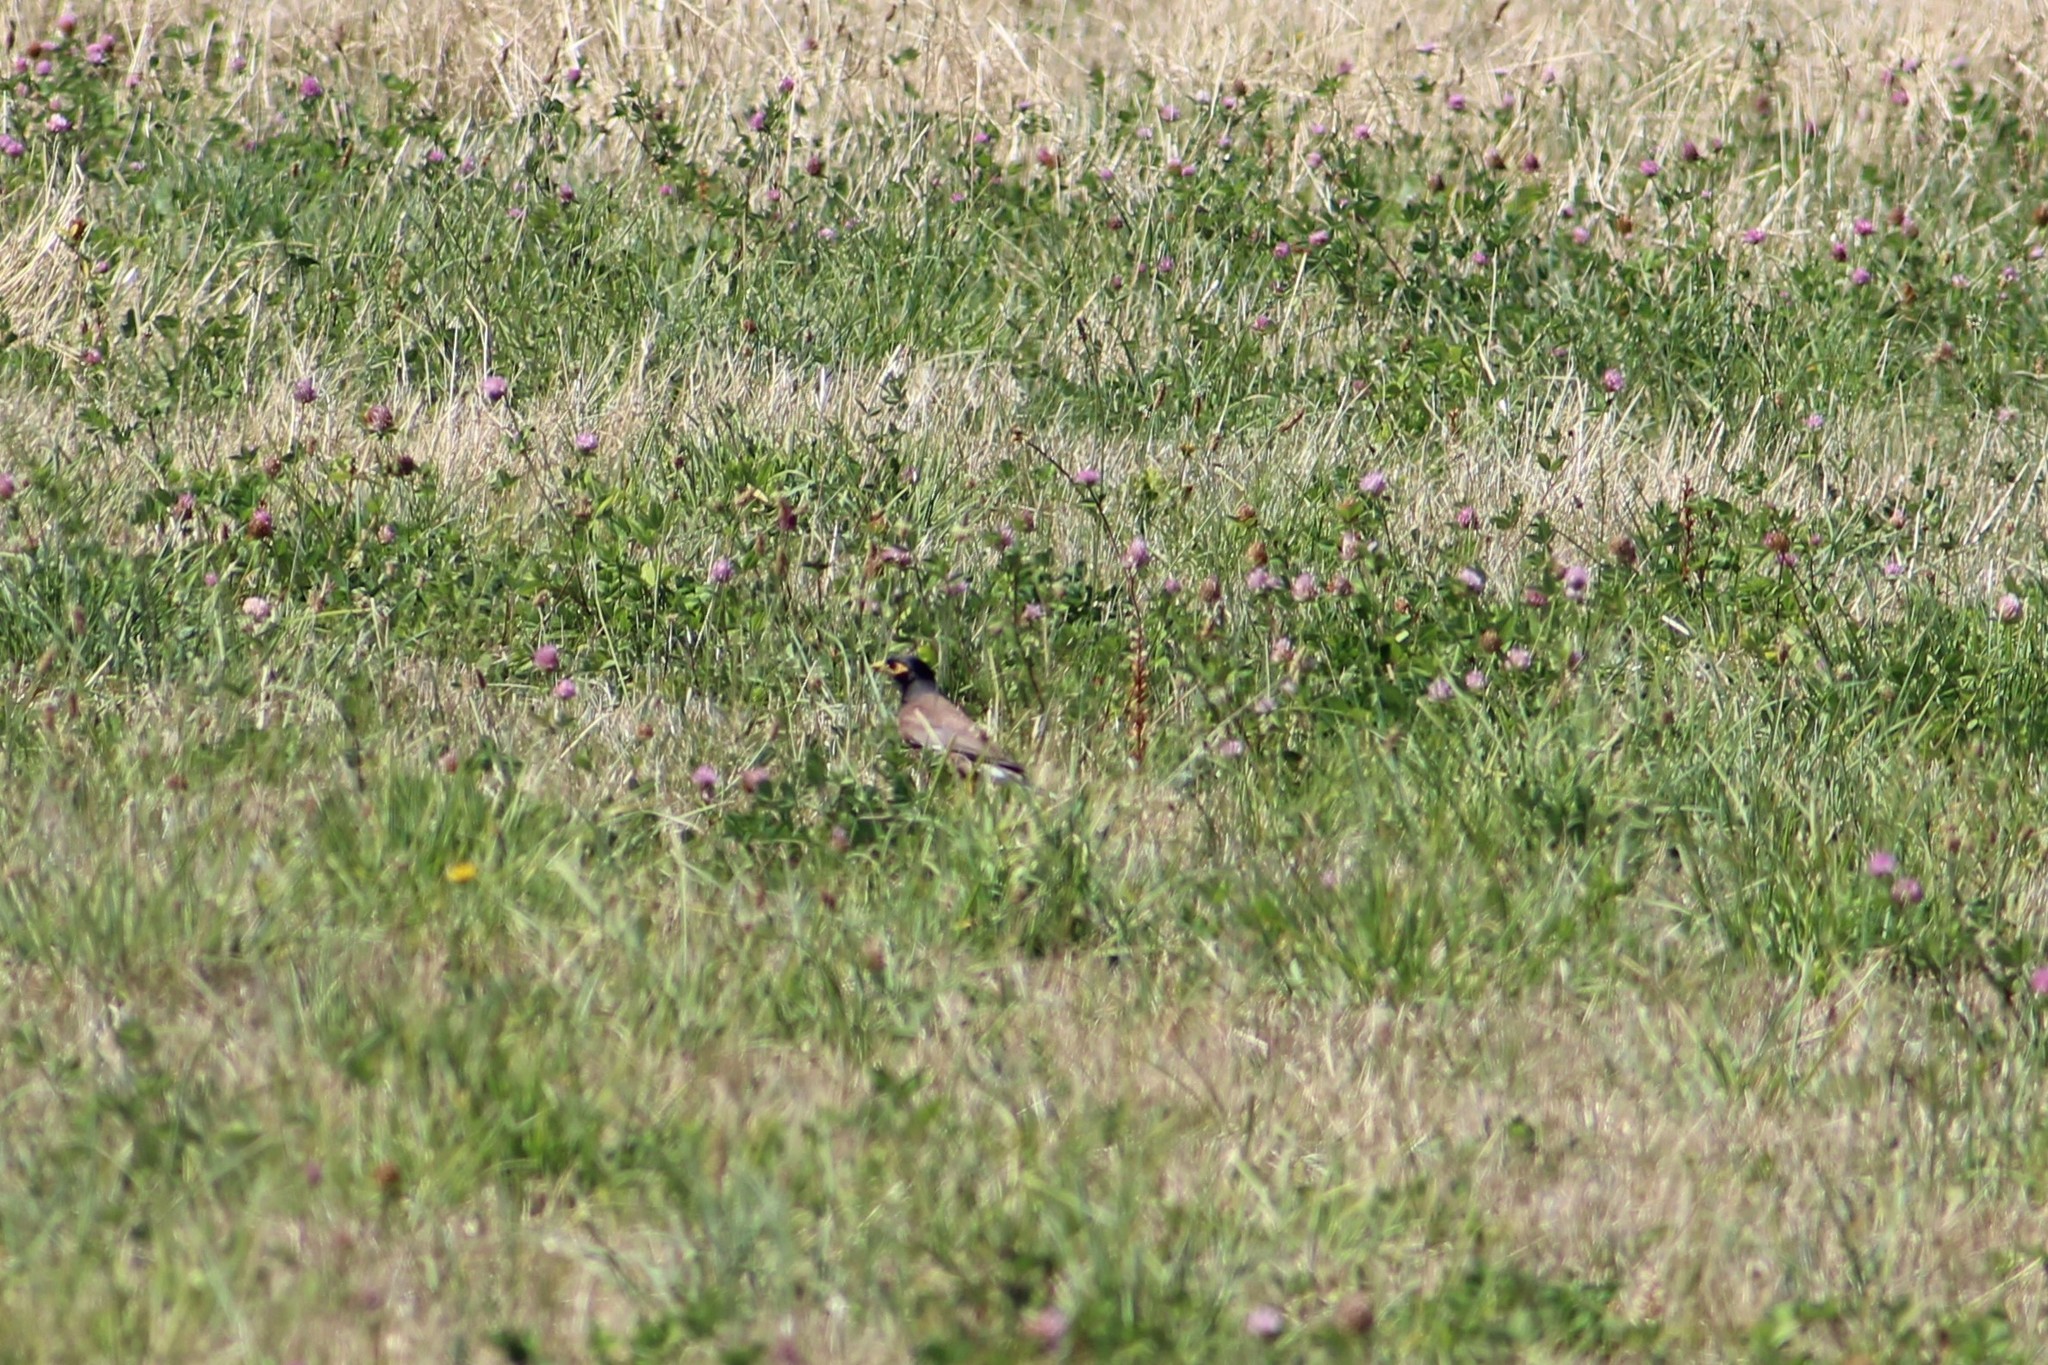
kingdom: Plantae
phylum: Tracheophyta
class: Magnoliopsida
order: Lamiales
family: Orobanchaceae
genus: Orobanche
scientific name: Orobanche minor
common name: Common broomrape
